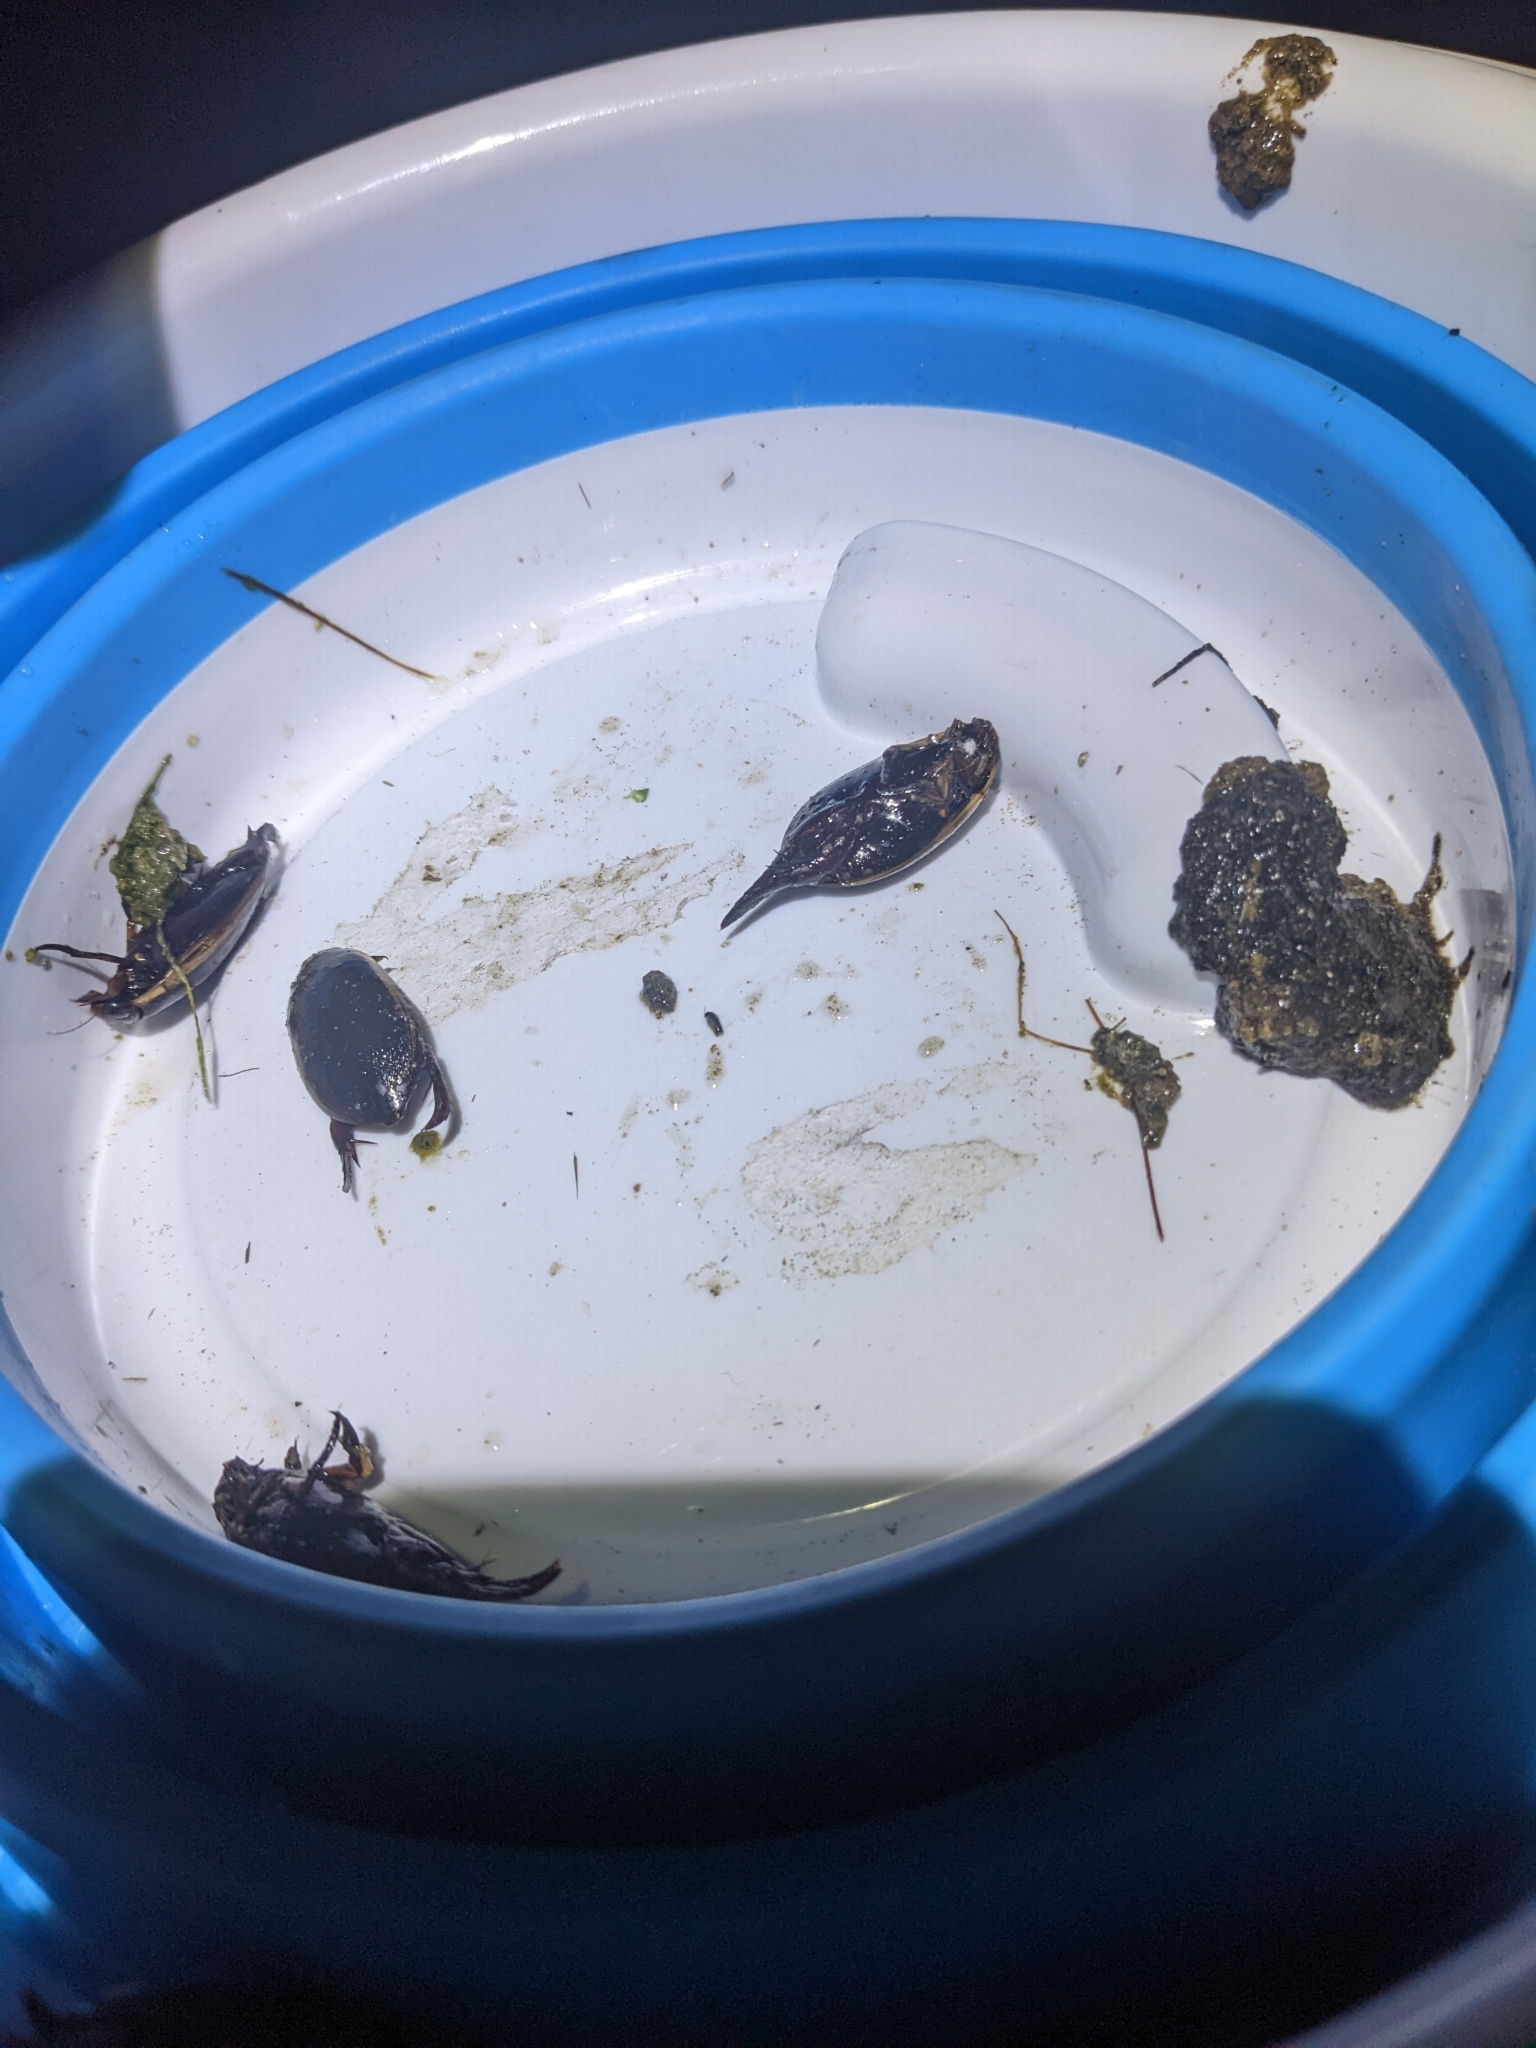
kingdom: Animalia
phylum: Arthropoda
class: Insecta
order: Coleoptera
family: Dytiscidae
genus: Cybister
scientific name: Cybister fimbriolatus
